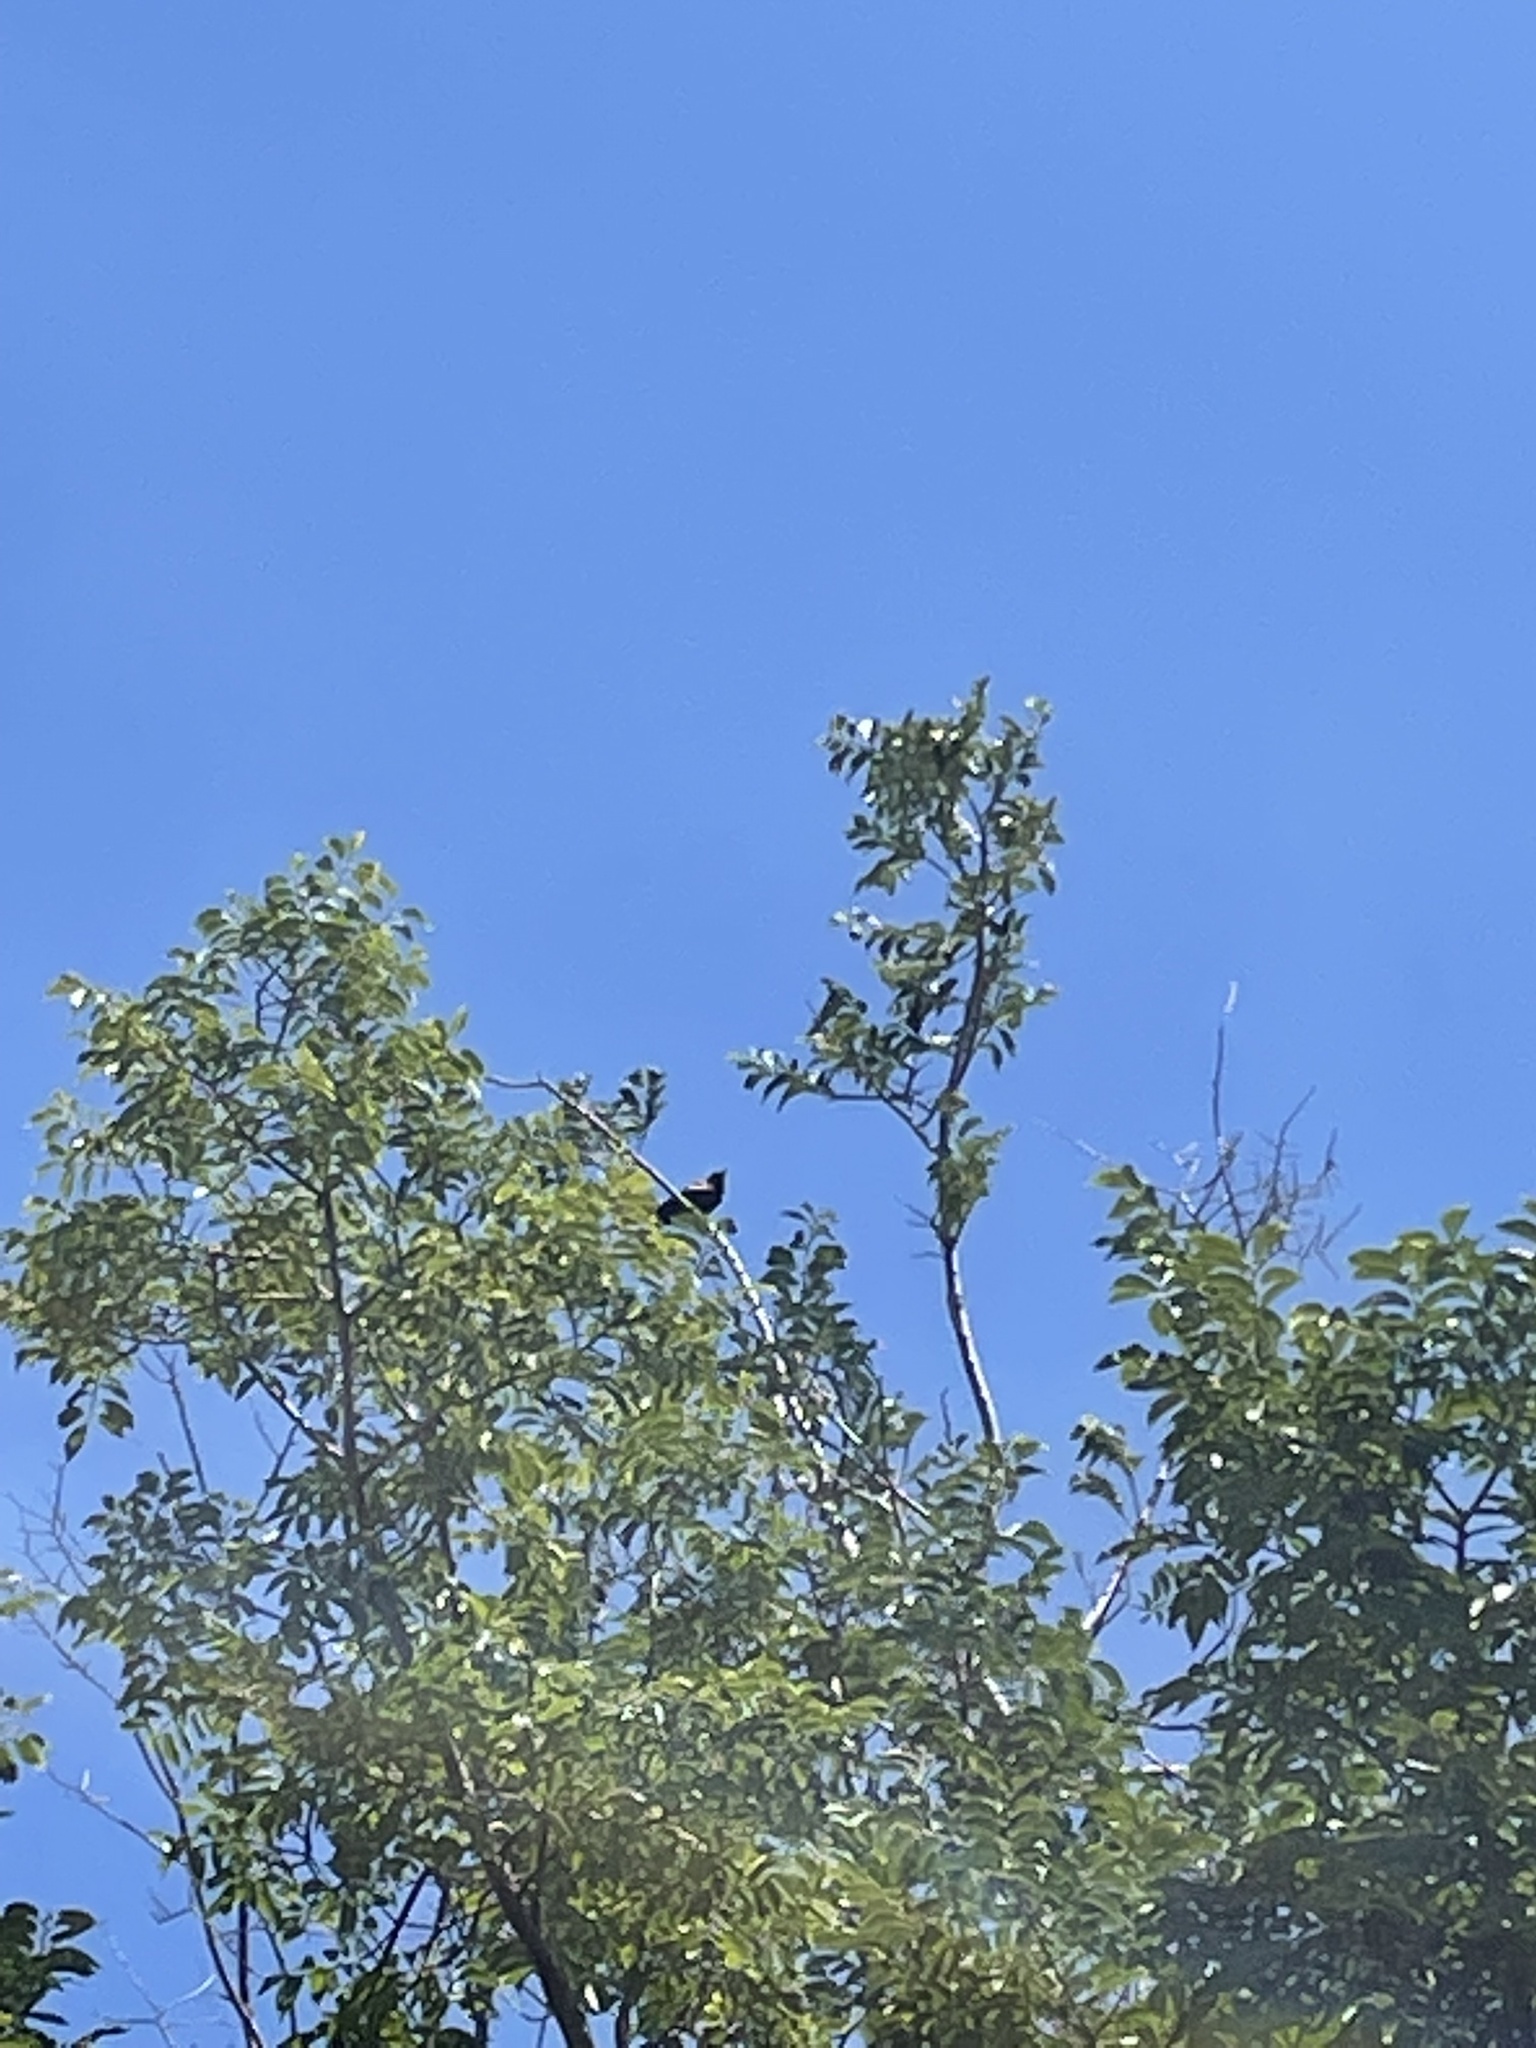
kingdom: Animalia
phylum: Chordata
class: Aves
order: Passeriformes
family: Icteridae
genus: Agelaius
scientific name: Agelaius phoeniceus
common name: Red-winged blackbird
